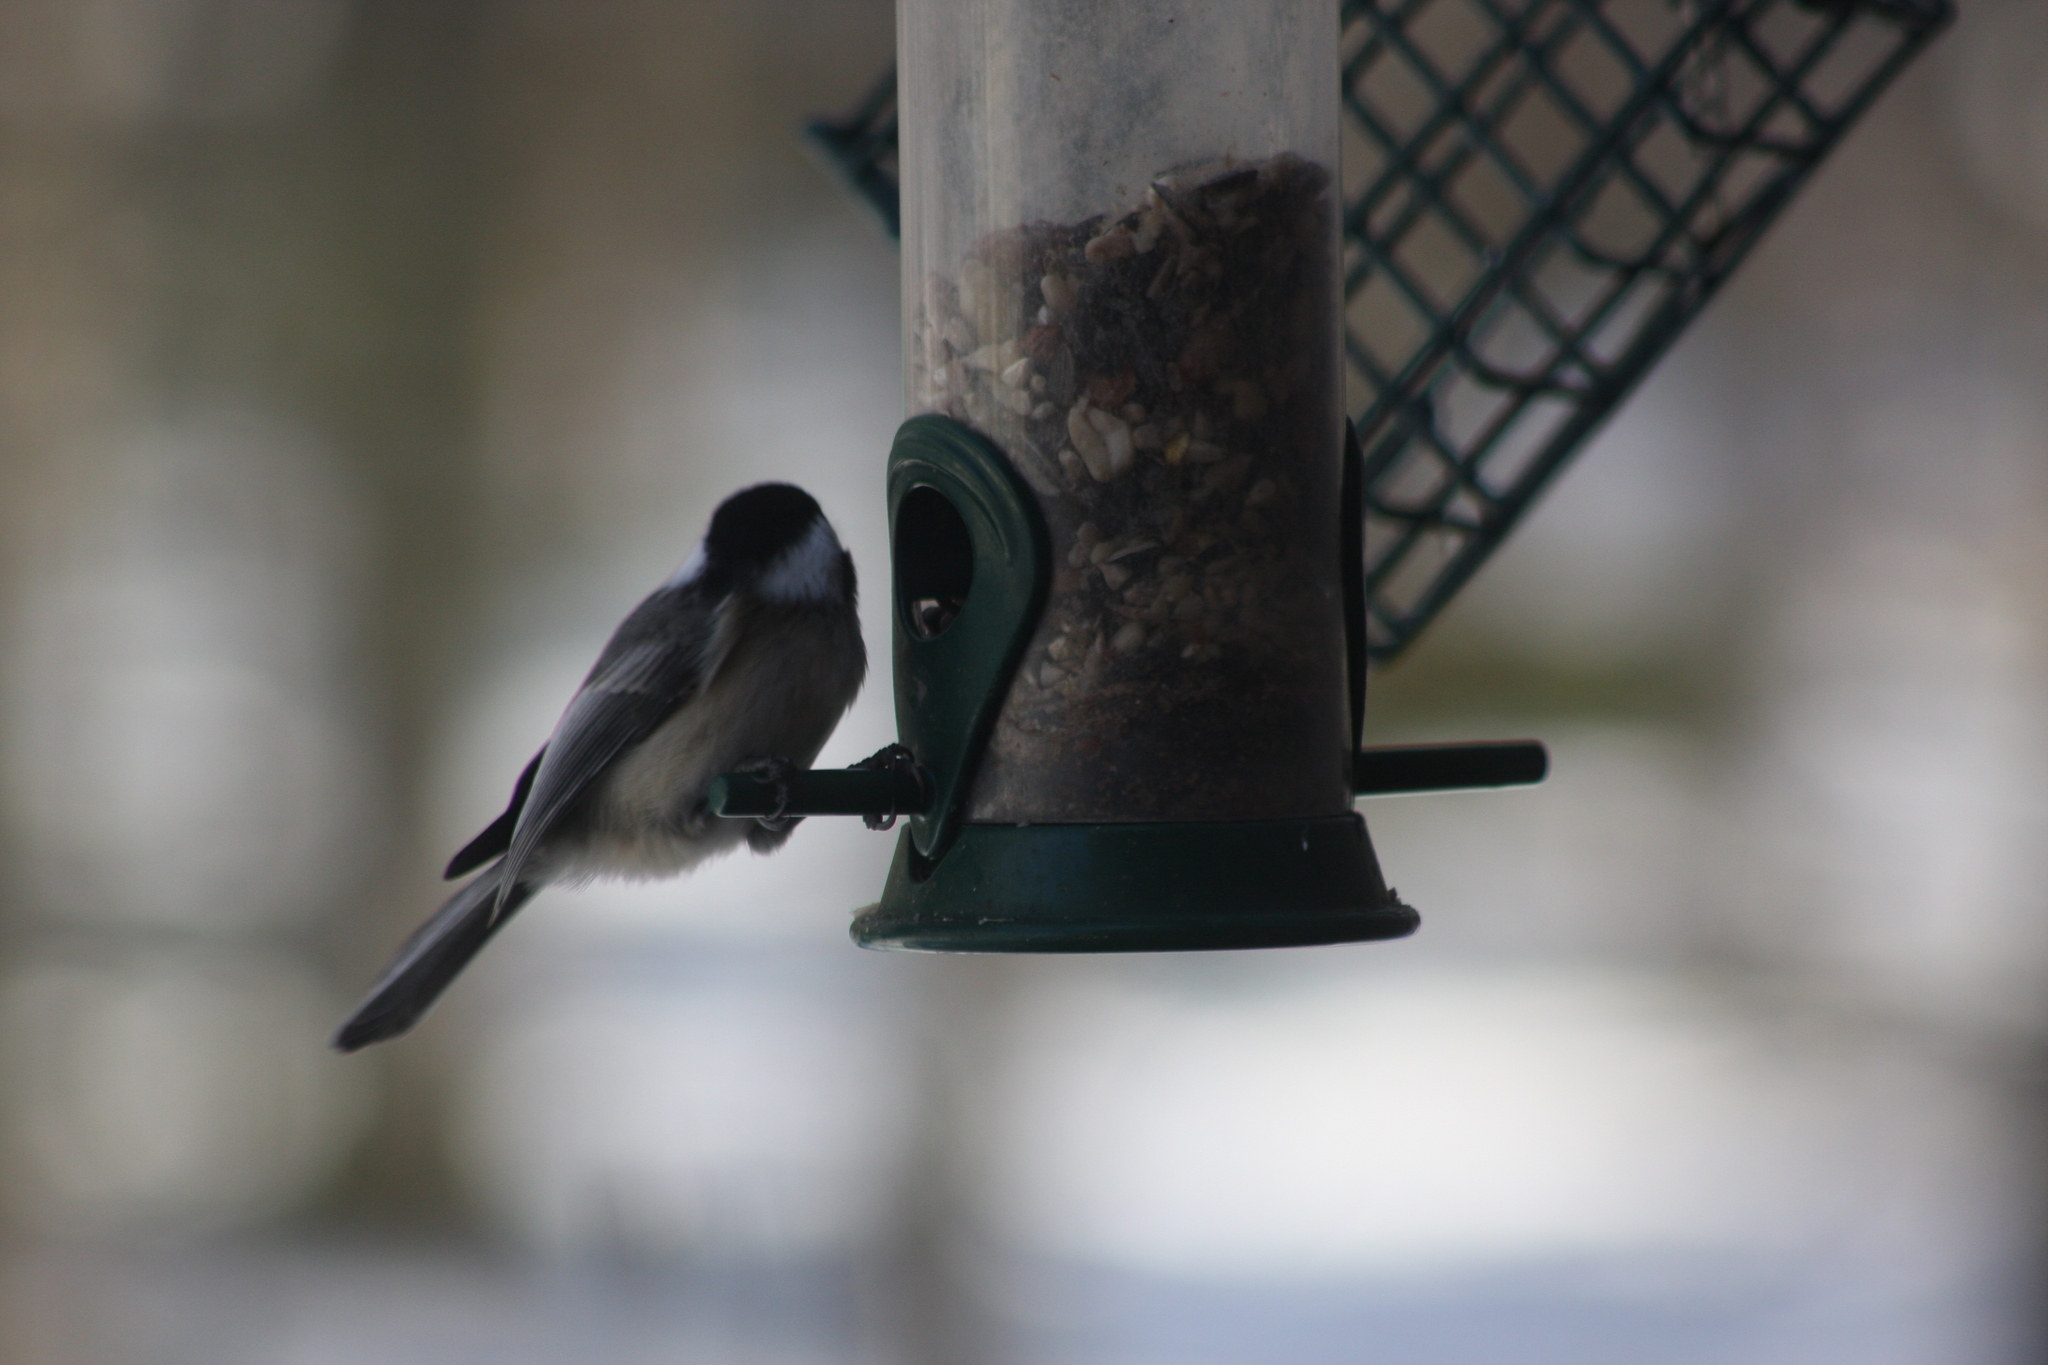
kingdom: Animalia
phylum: Chordata
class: Aves
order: Passeriformes
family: Paridae
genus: Poecile
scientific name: Poecile atricapillus
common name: Black-capped chickadee
